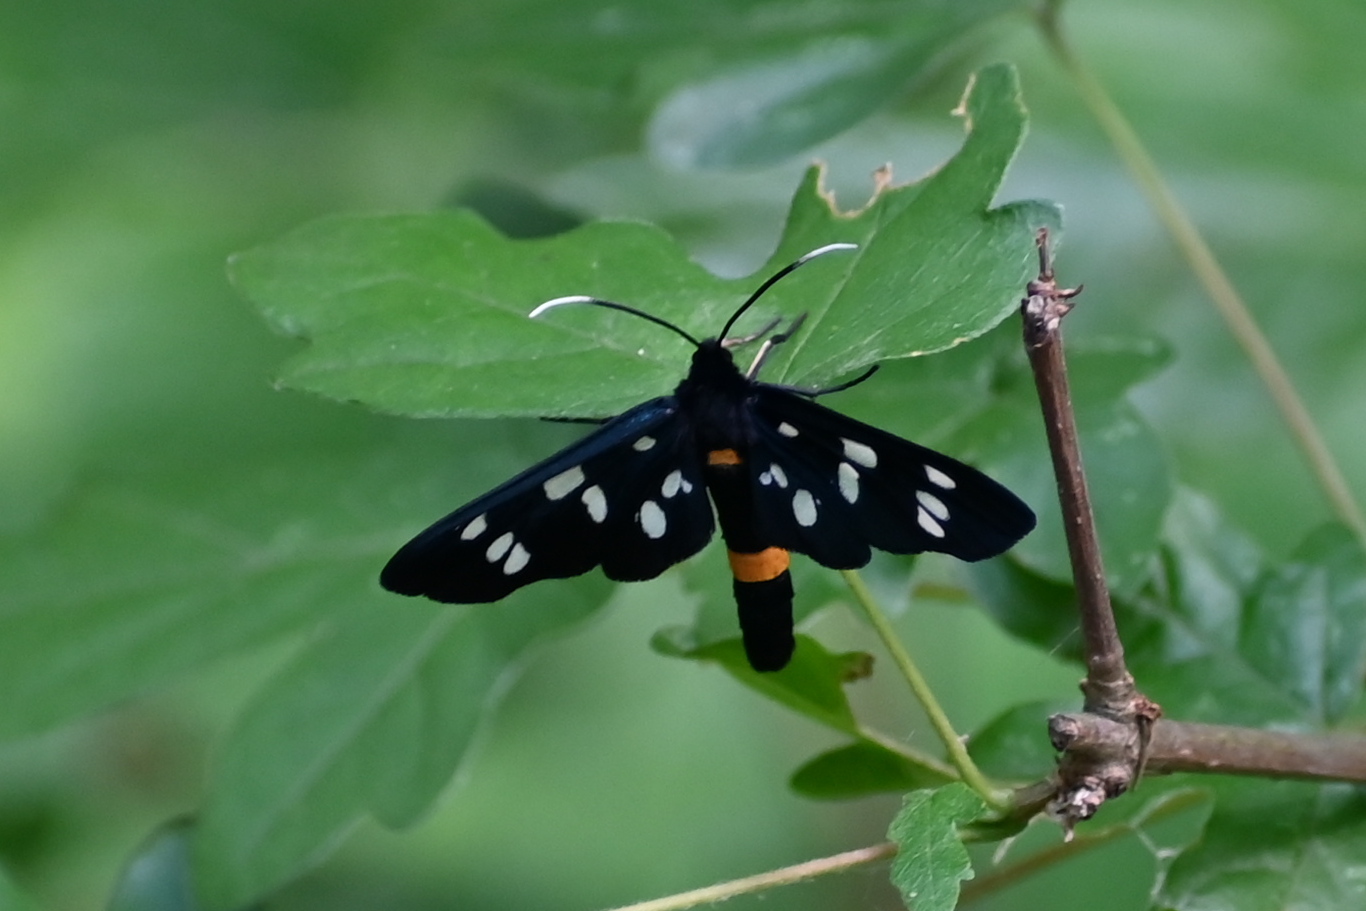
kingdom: Animalia
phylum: Arthropoda
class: Insecta
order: Lepidoptera
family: Erebidae
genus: Amata
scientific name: Amata phegea
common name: Nine-spotted
